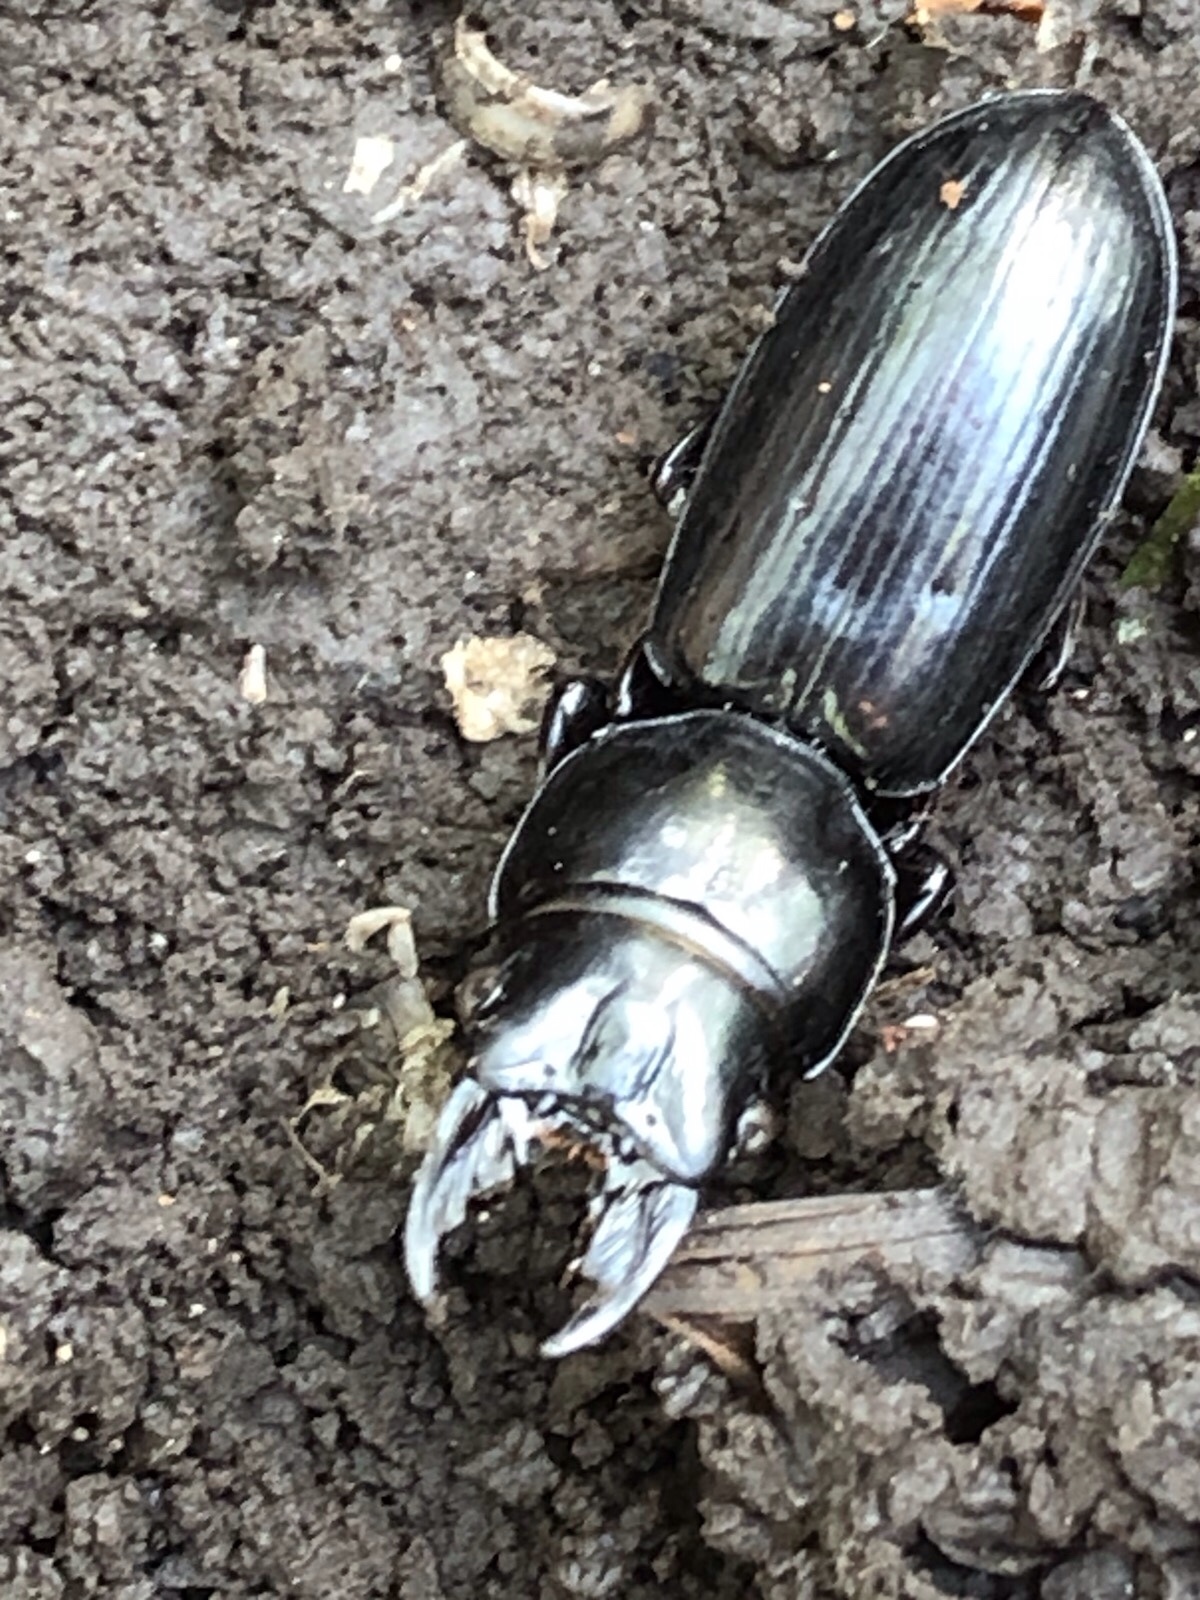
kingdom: Animalia
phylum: Arthropoda
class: Insecta
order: Coleoptera
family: Carabidae
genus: Scarites
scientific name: Scarites subterraneus
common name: Big-headed ground beetle
